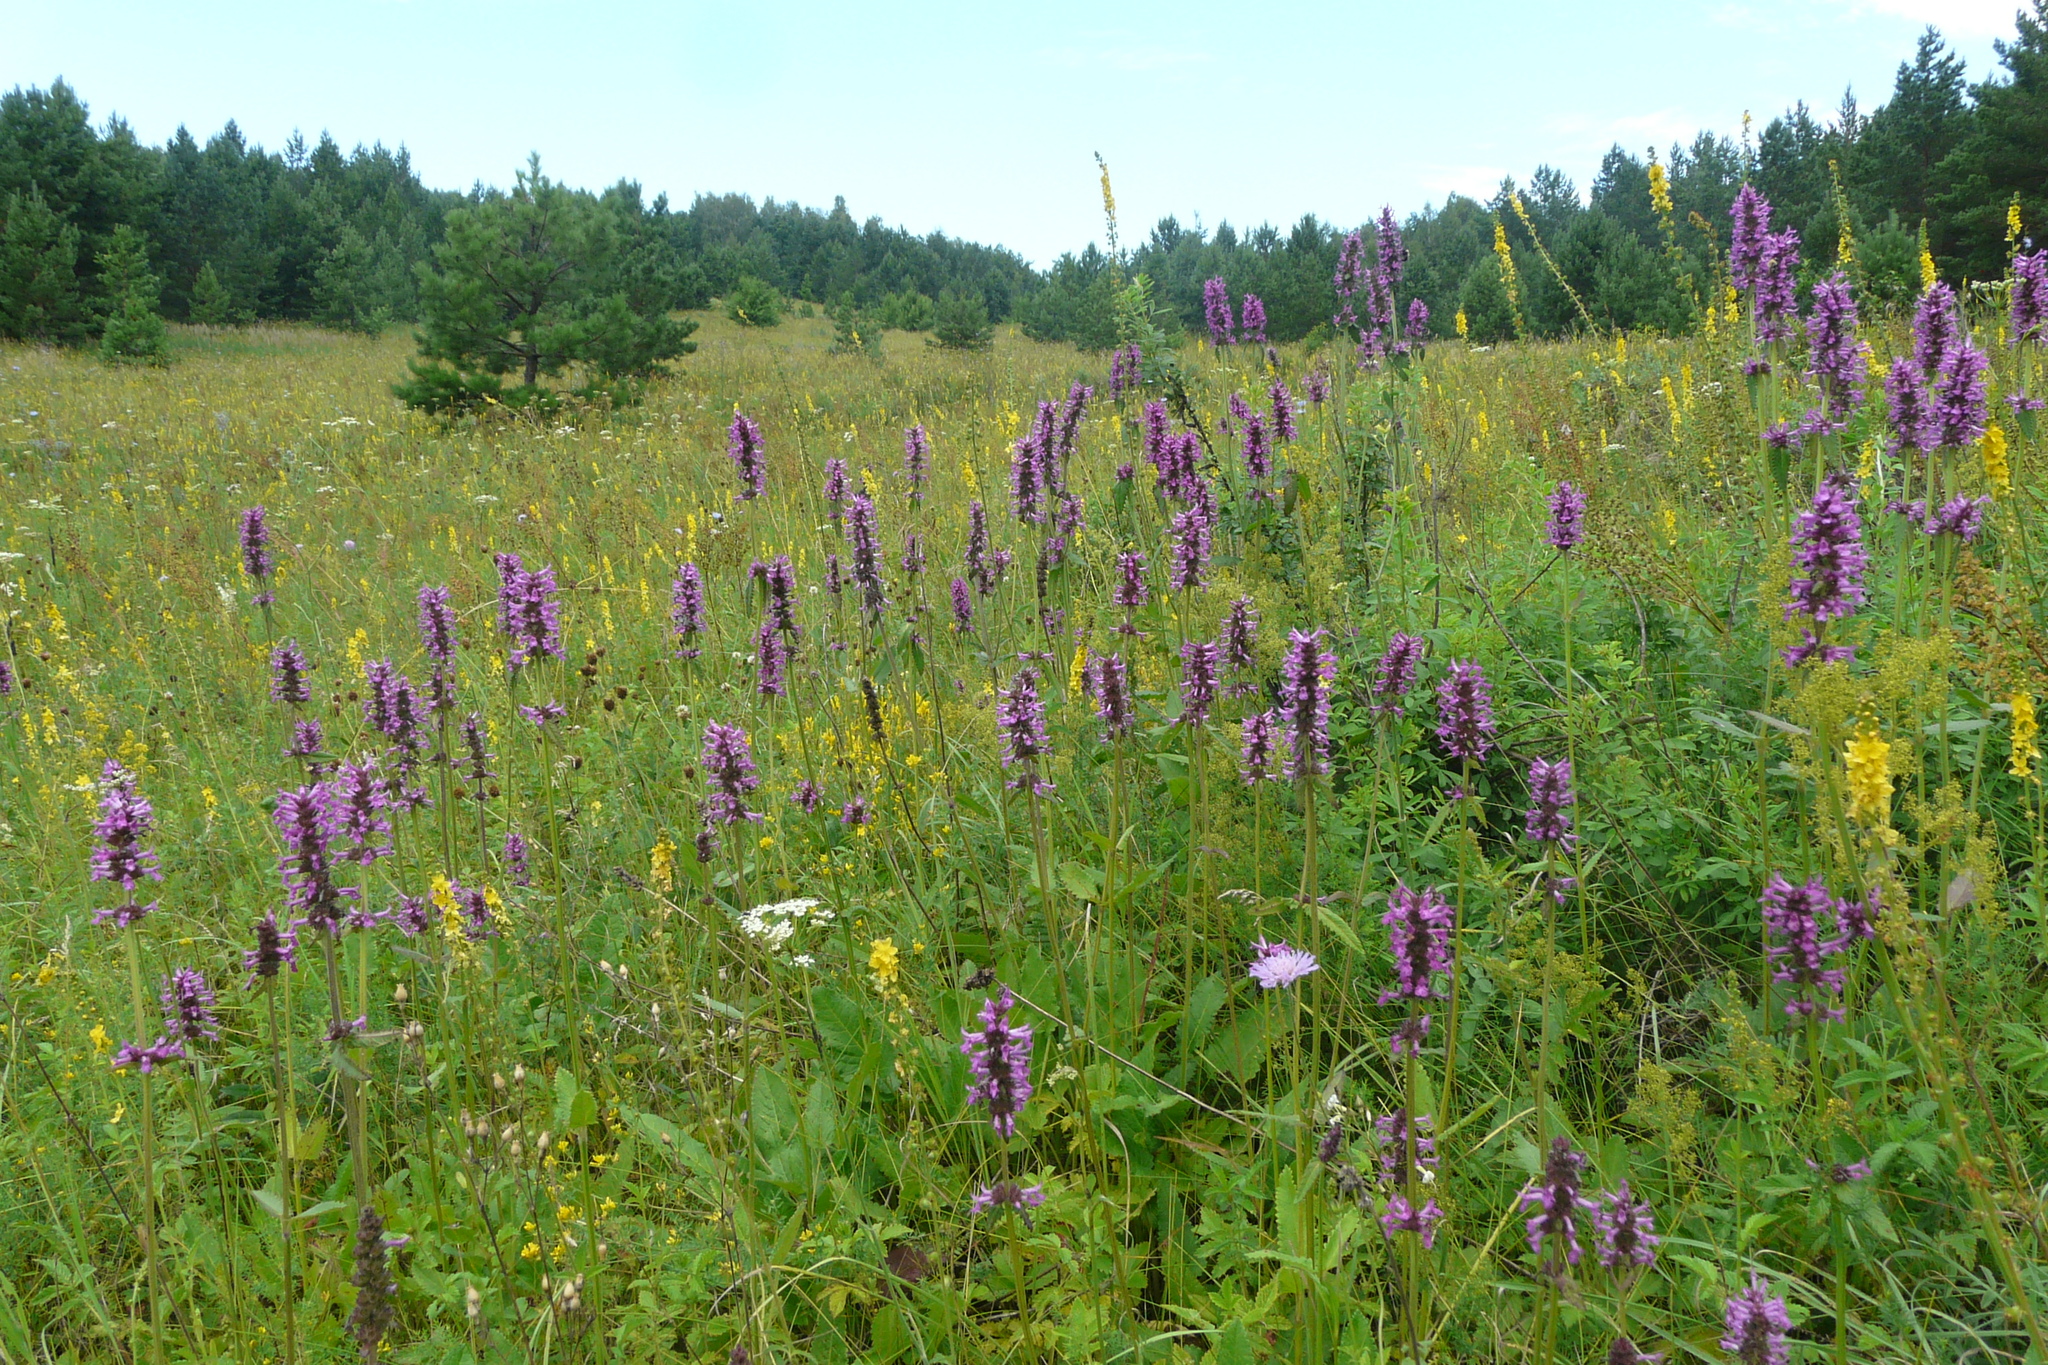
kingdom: Plantae
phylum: Tracheophyta
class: Magnoliopsida
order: Lamiales
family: Lamiaceae
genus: Betonica
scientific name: Betonica officinalis
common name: Bishop's-wort
